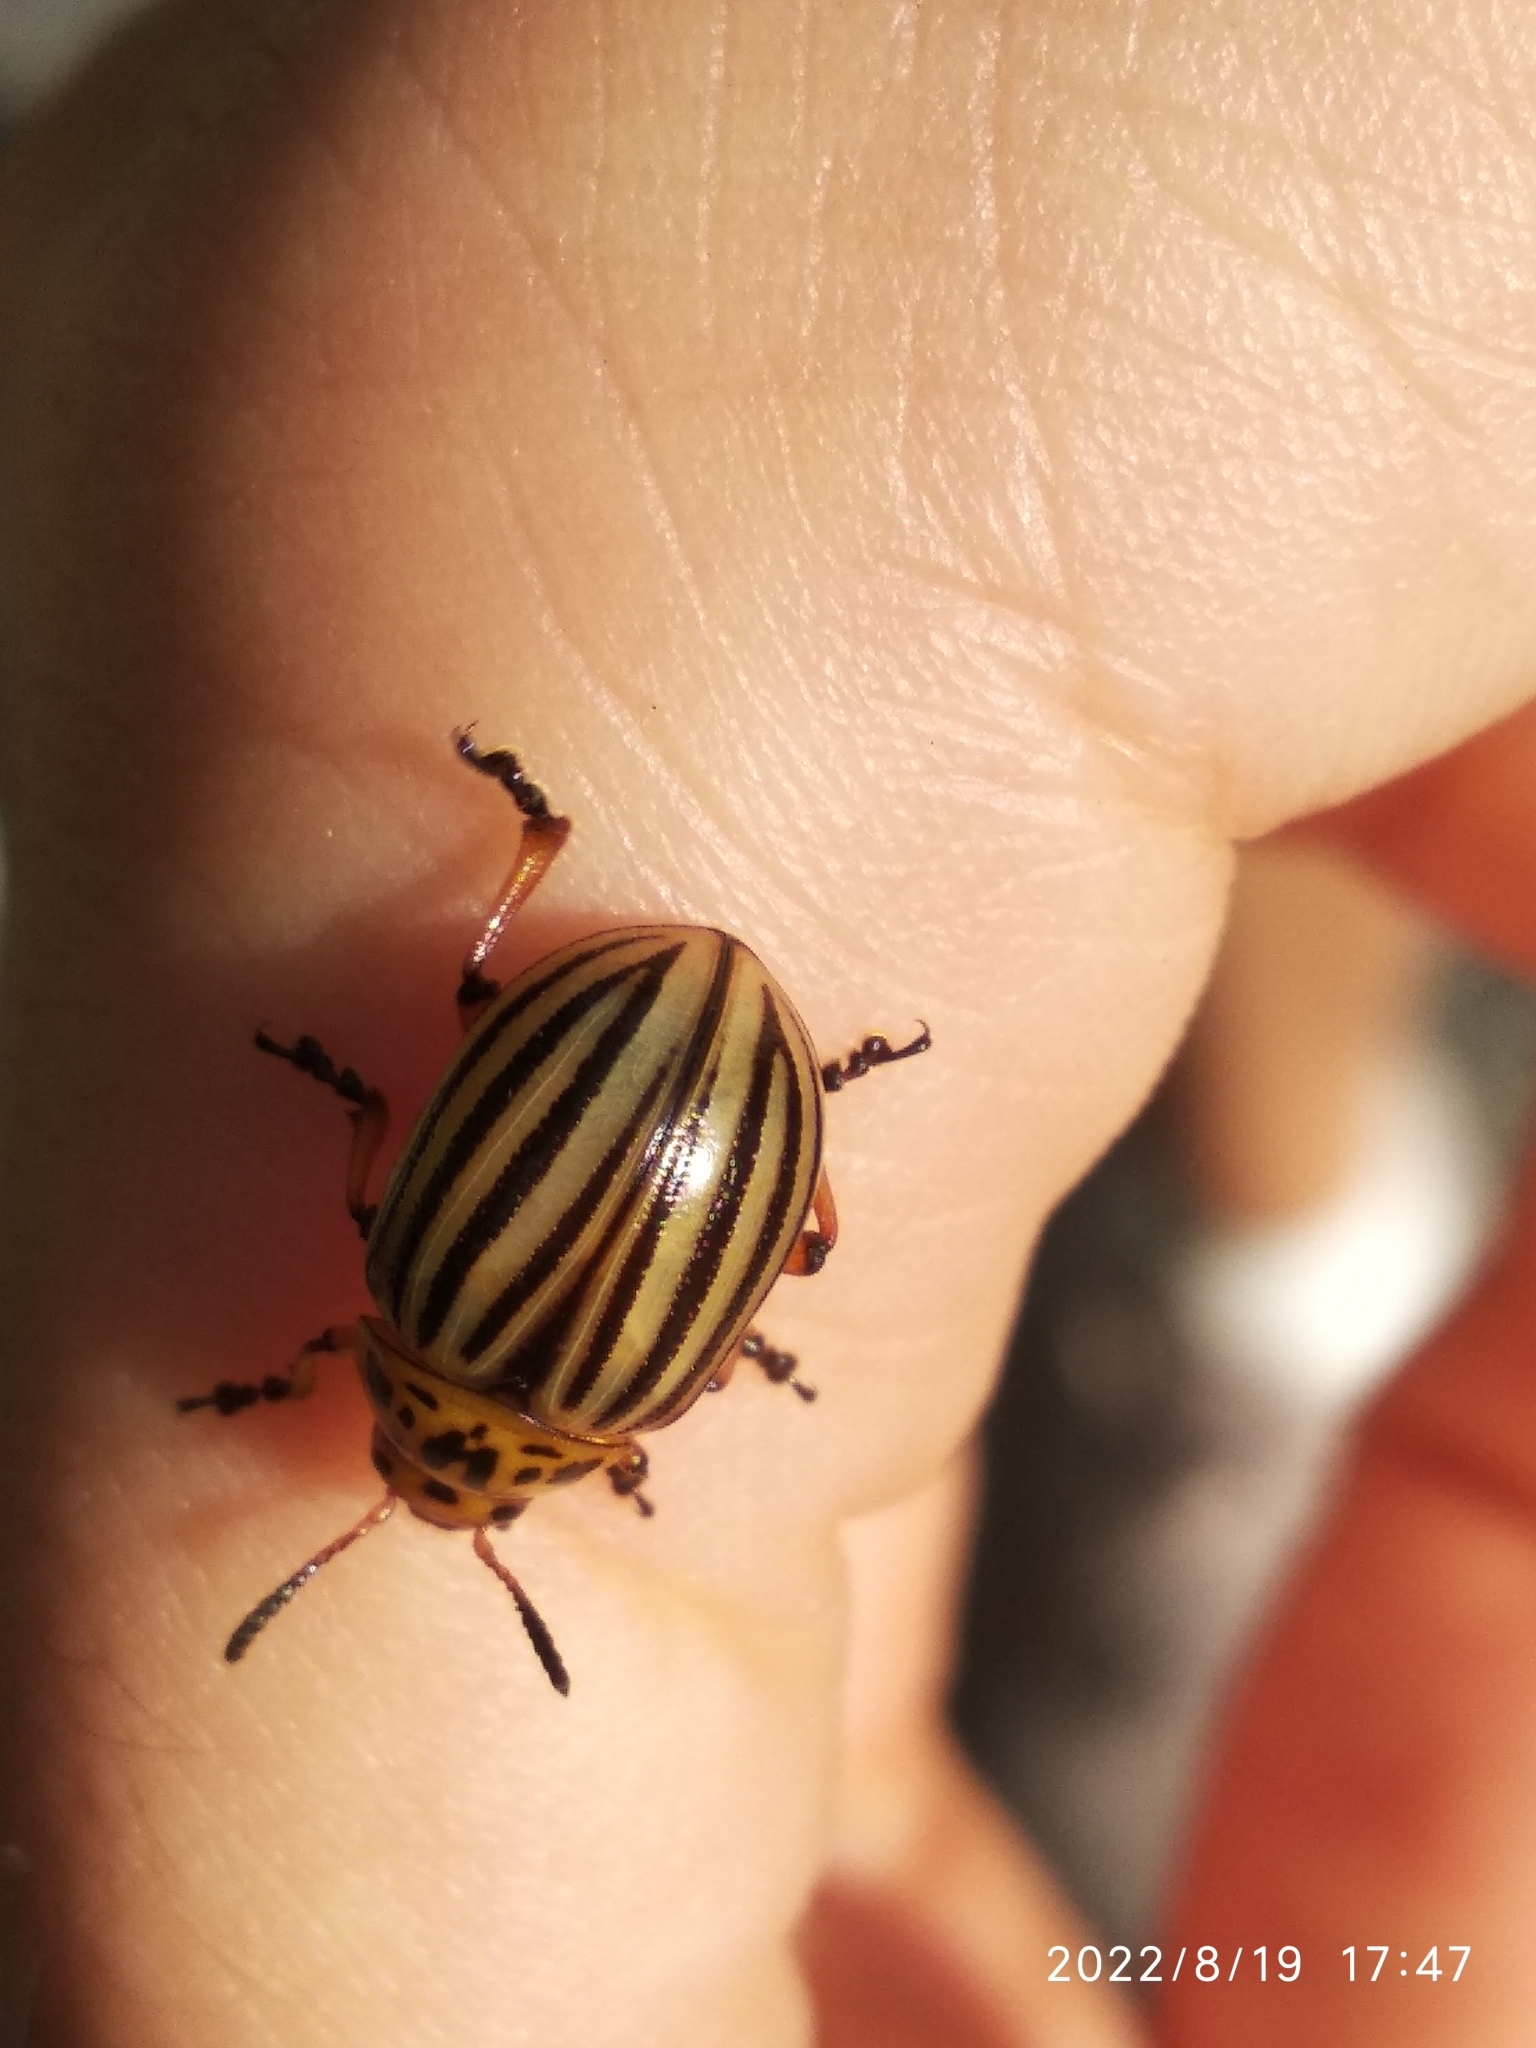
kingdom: Animalia
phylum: Arthropoda
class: Insecta
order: Coleoptera
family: Chrysomelidae
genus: Leptinotarsa
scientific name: Leptinotarsa decemlineata
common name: Colorado potato beetle
